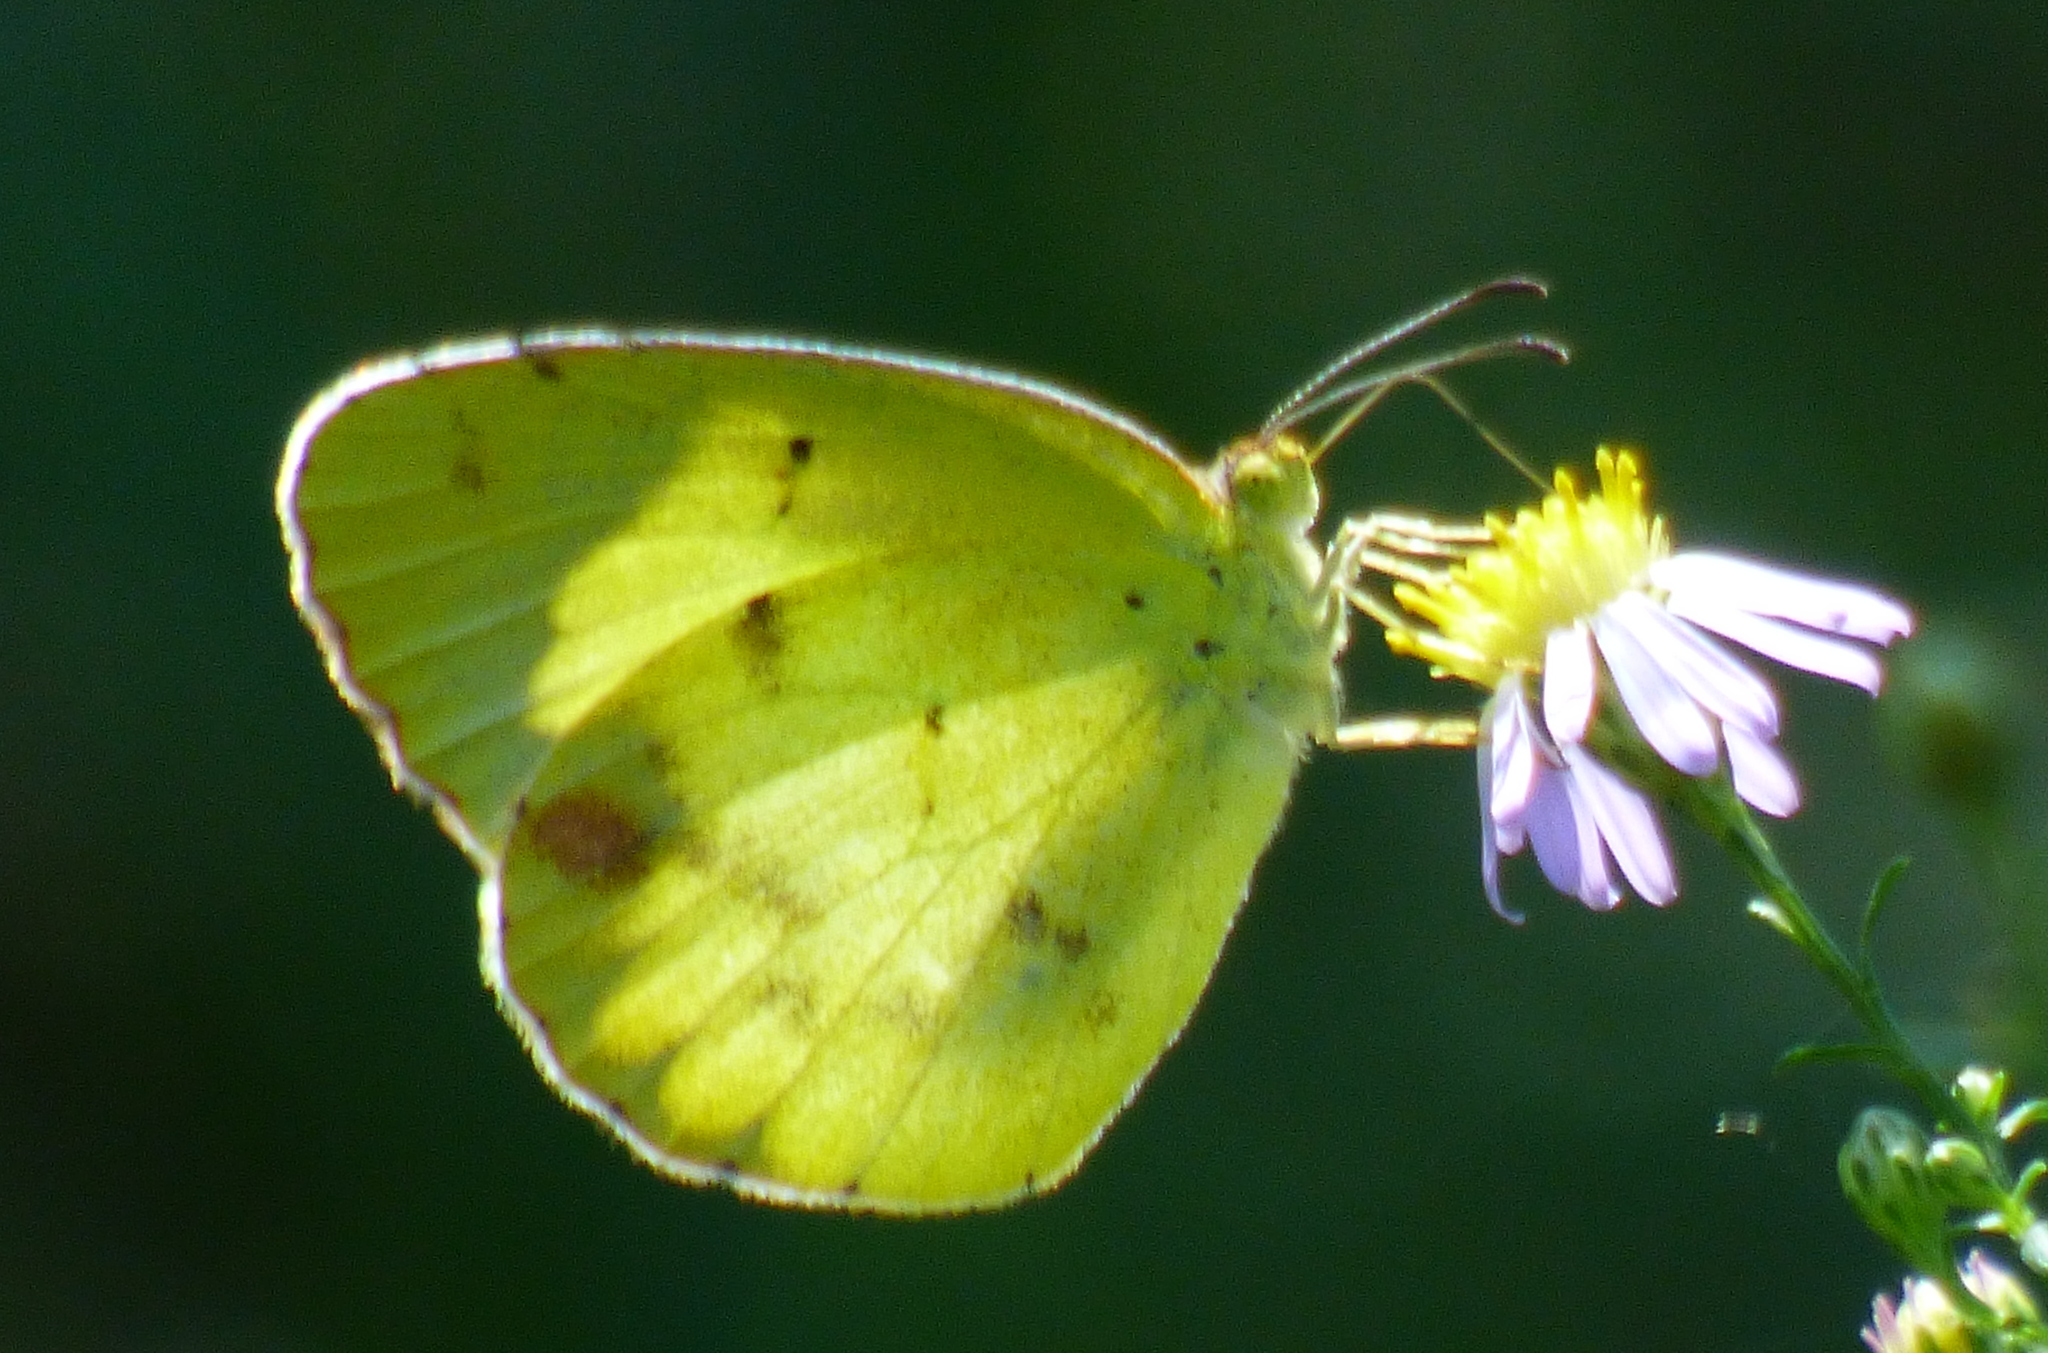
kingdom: Animalia
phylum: Arthropoda
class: Insecta
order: Lepidoptera
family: Pieridae
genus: Pyrisitia
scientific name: Pyrisitia lisa
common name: Little yellow
